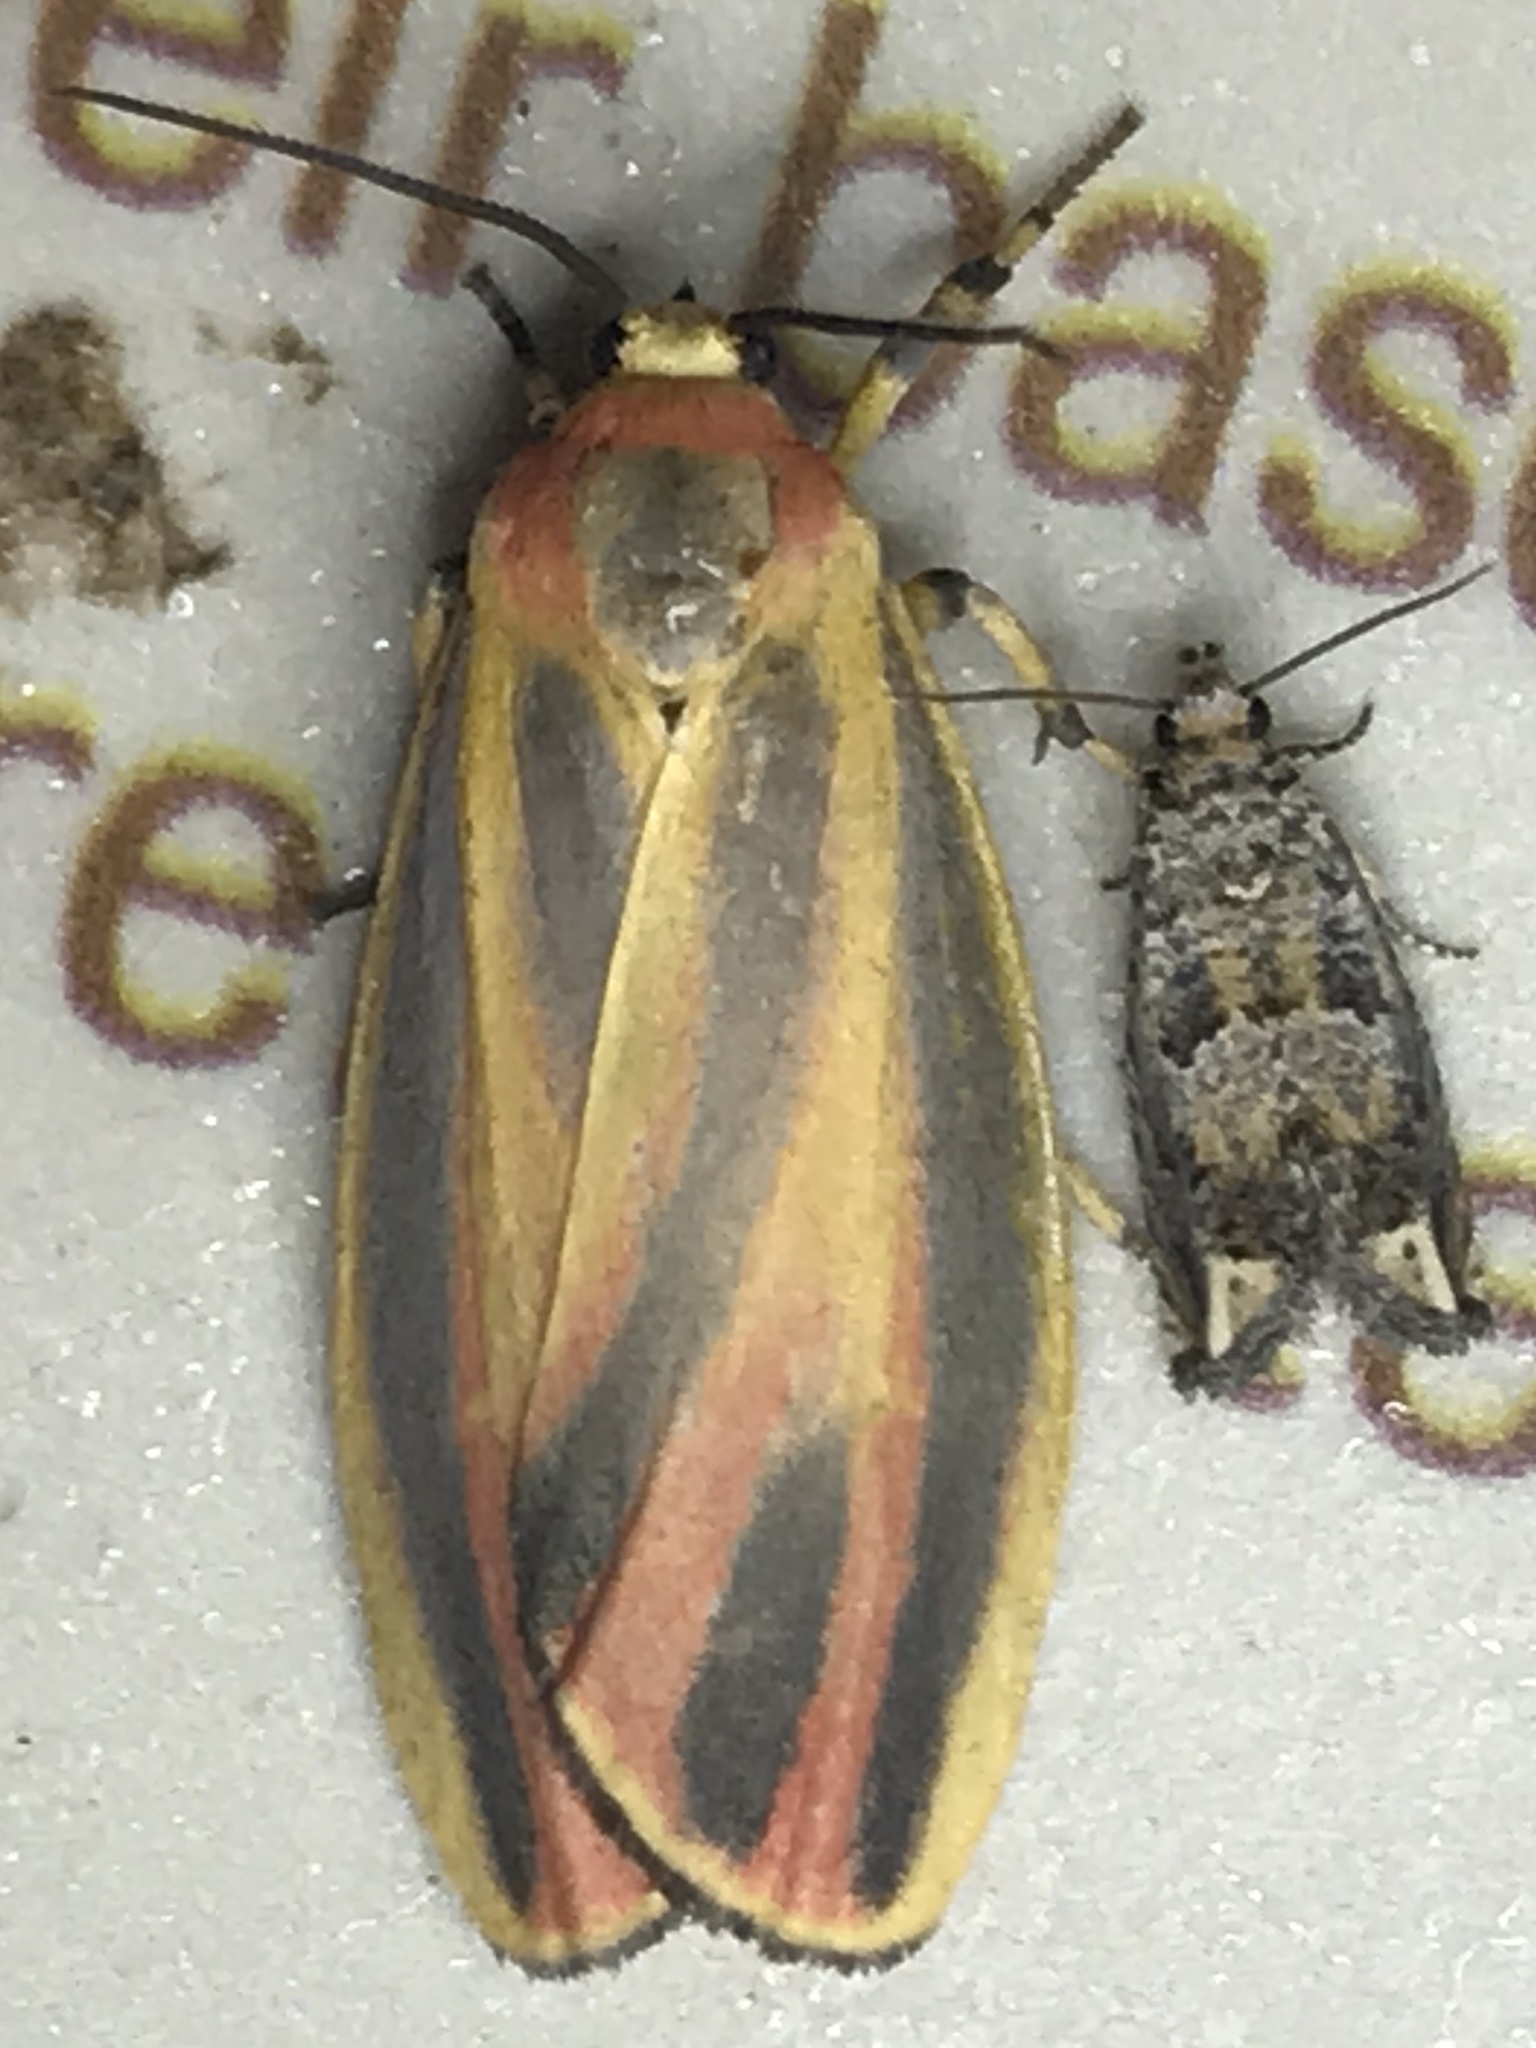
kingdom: Animalia
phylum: Arthropoda
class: Insecta
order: Lepidoptera
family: Erebidae
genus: Hypoprepia
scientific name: Hypoprepia fucosa
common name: Painted lichen moth
